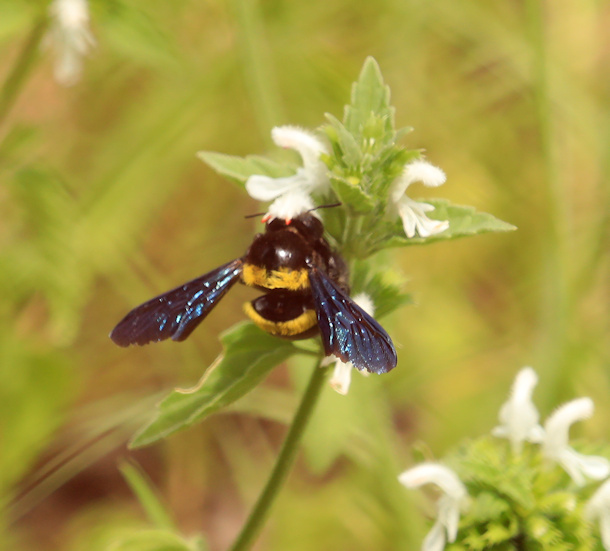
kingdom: Animalia
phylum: Arthropoda
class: Insecta
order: Hymenoptera
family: Apidae
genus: Xylocopa
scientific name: Xylocopa caffra
